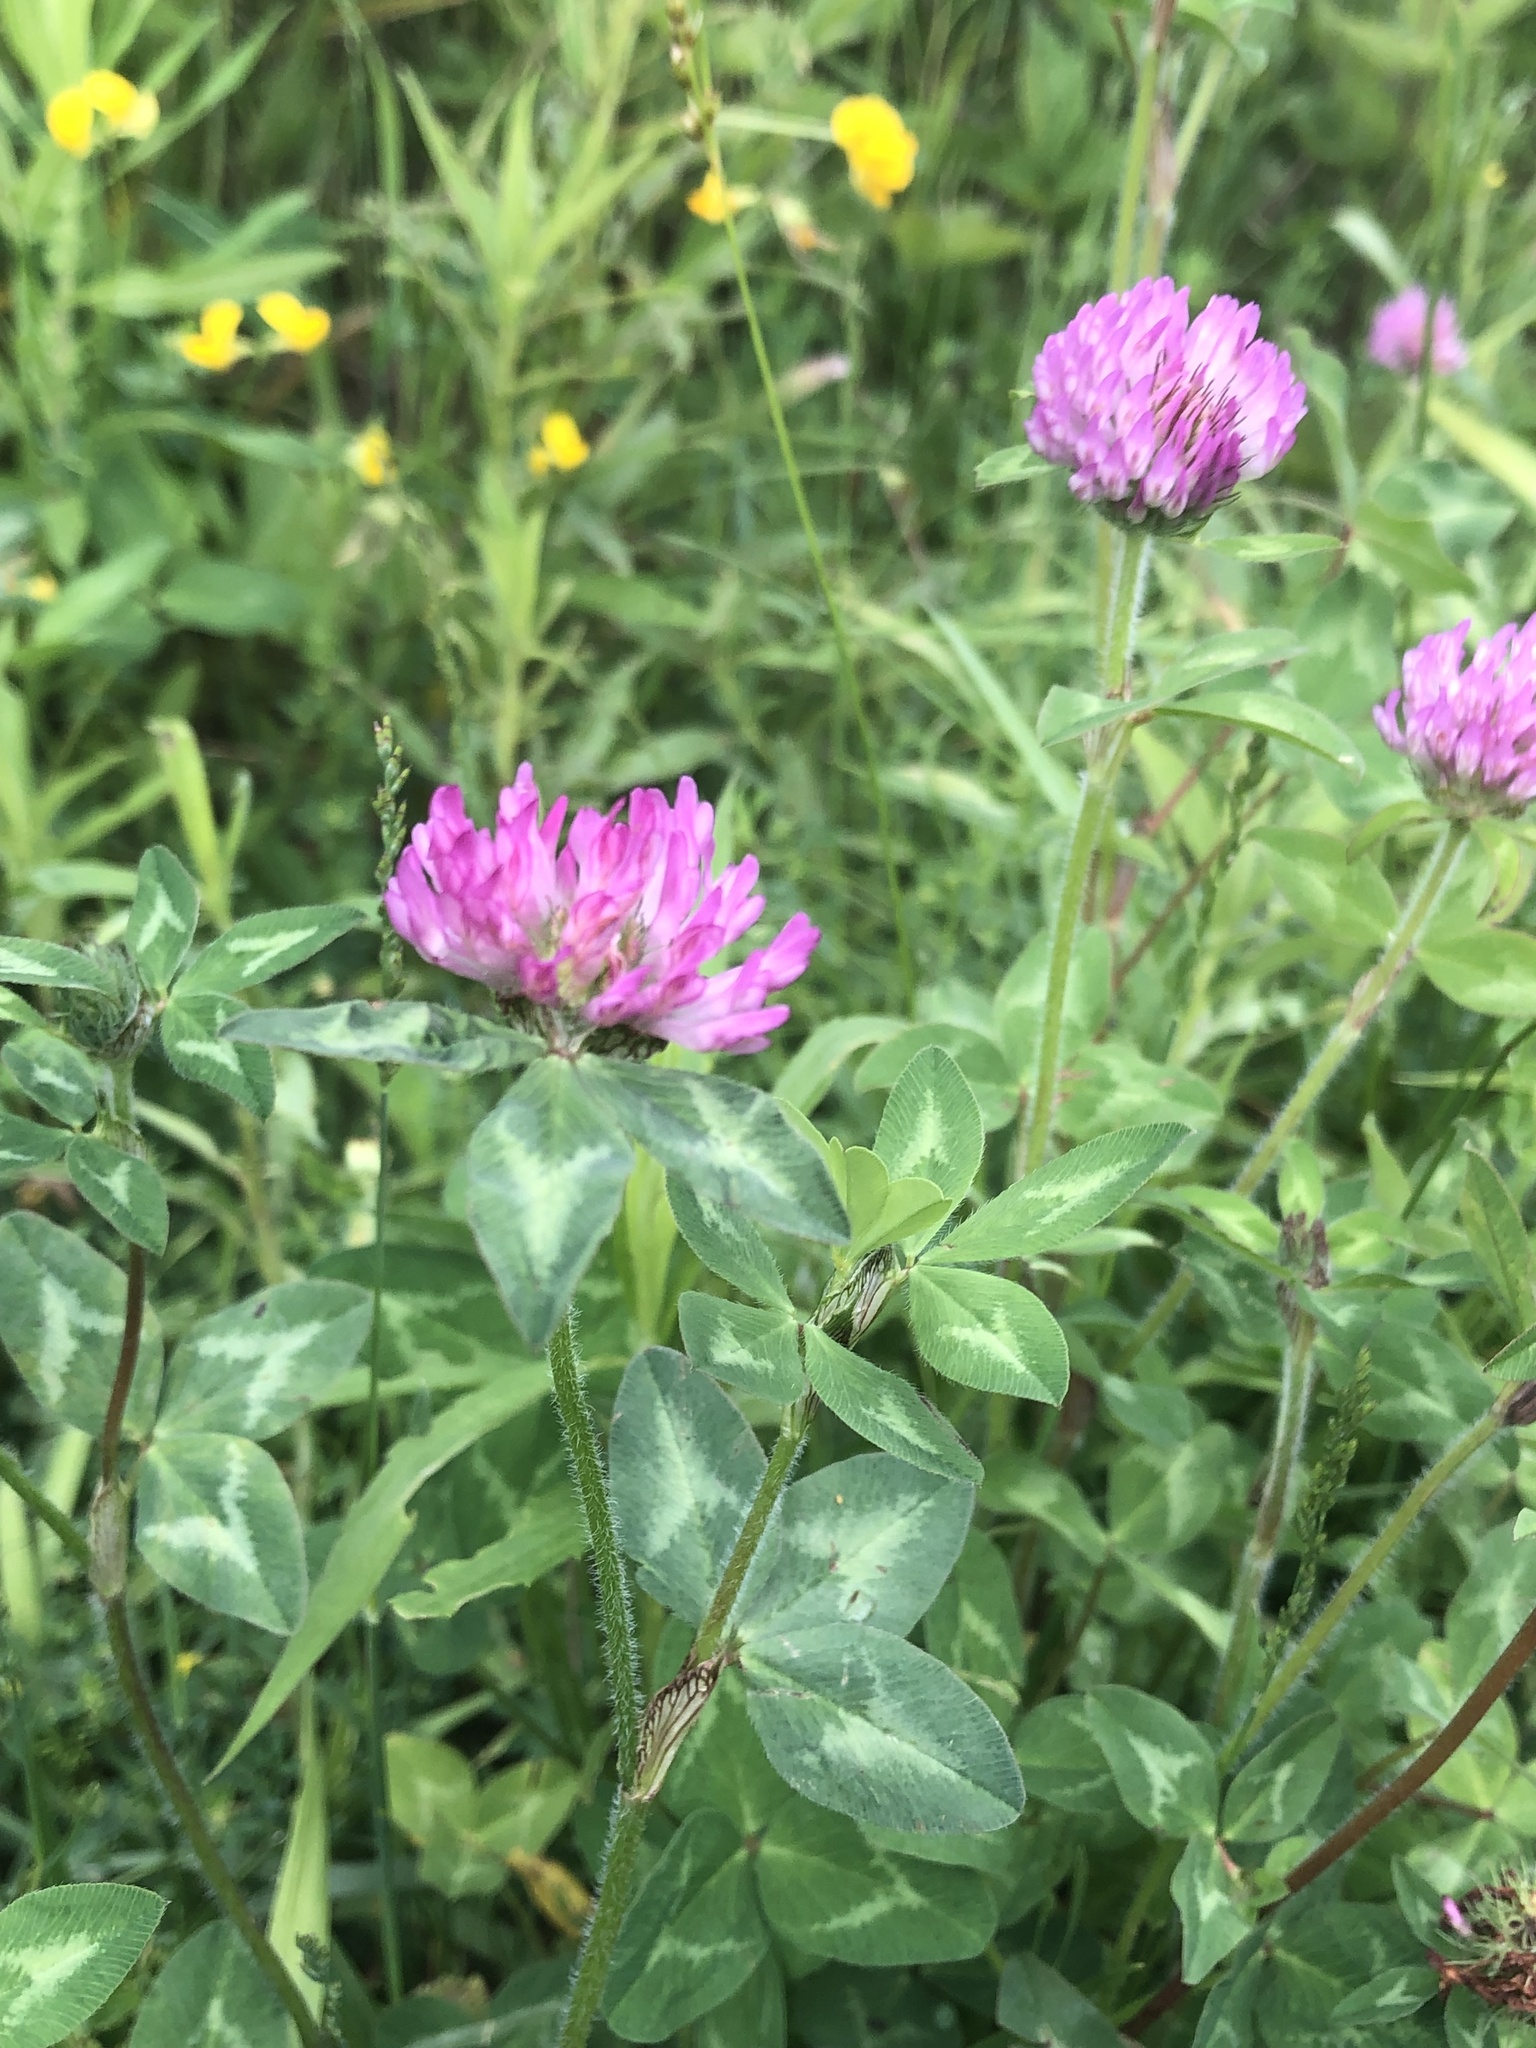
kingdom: Plantae
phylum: Tracheophyta
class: Magnoliopsida
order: Fabales
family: Fabaceae
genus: Trifolium
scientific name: Trifolium pratense
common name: Red clover
